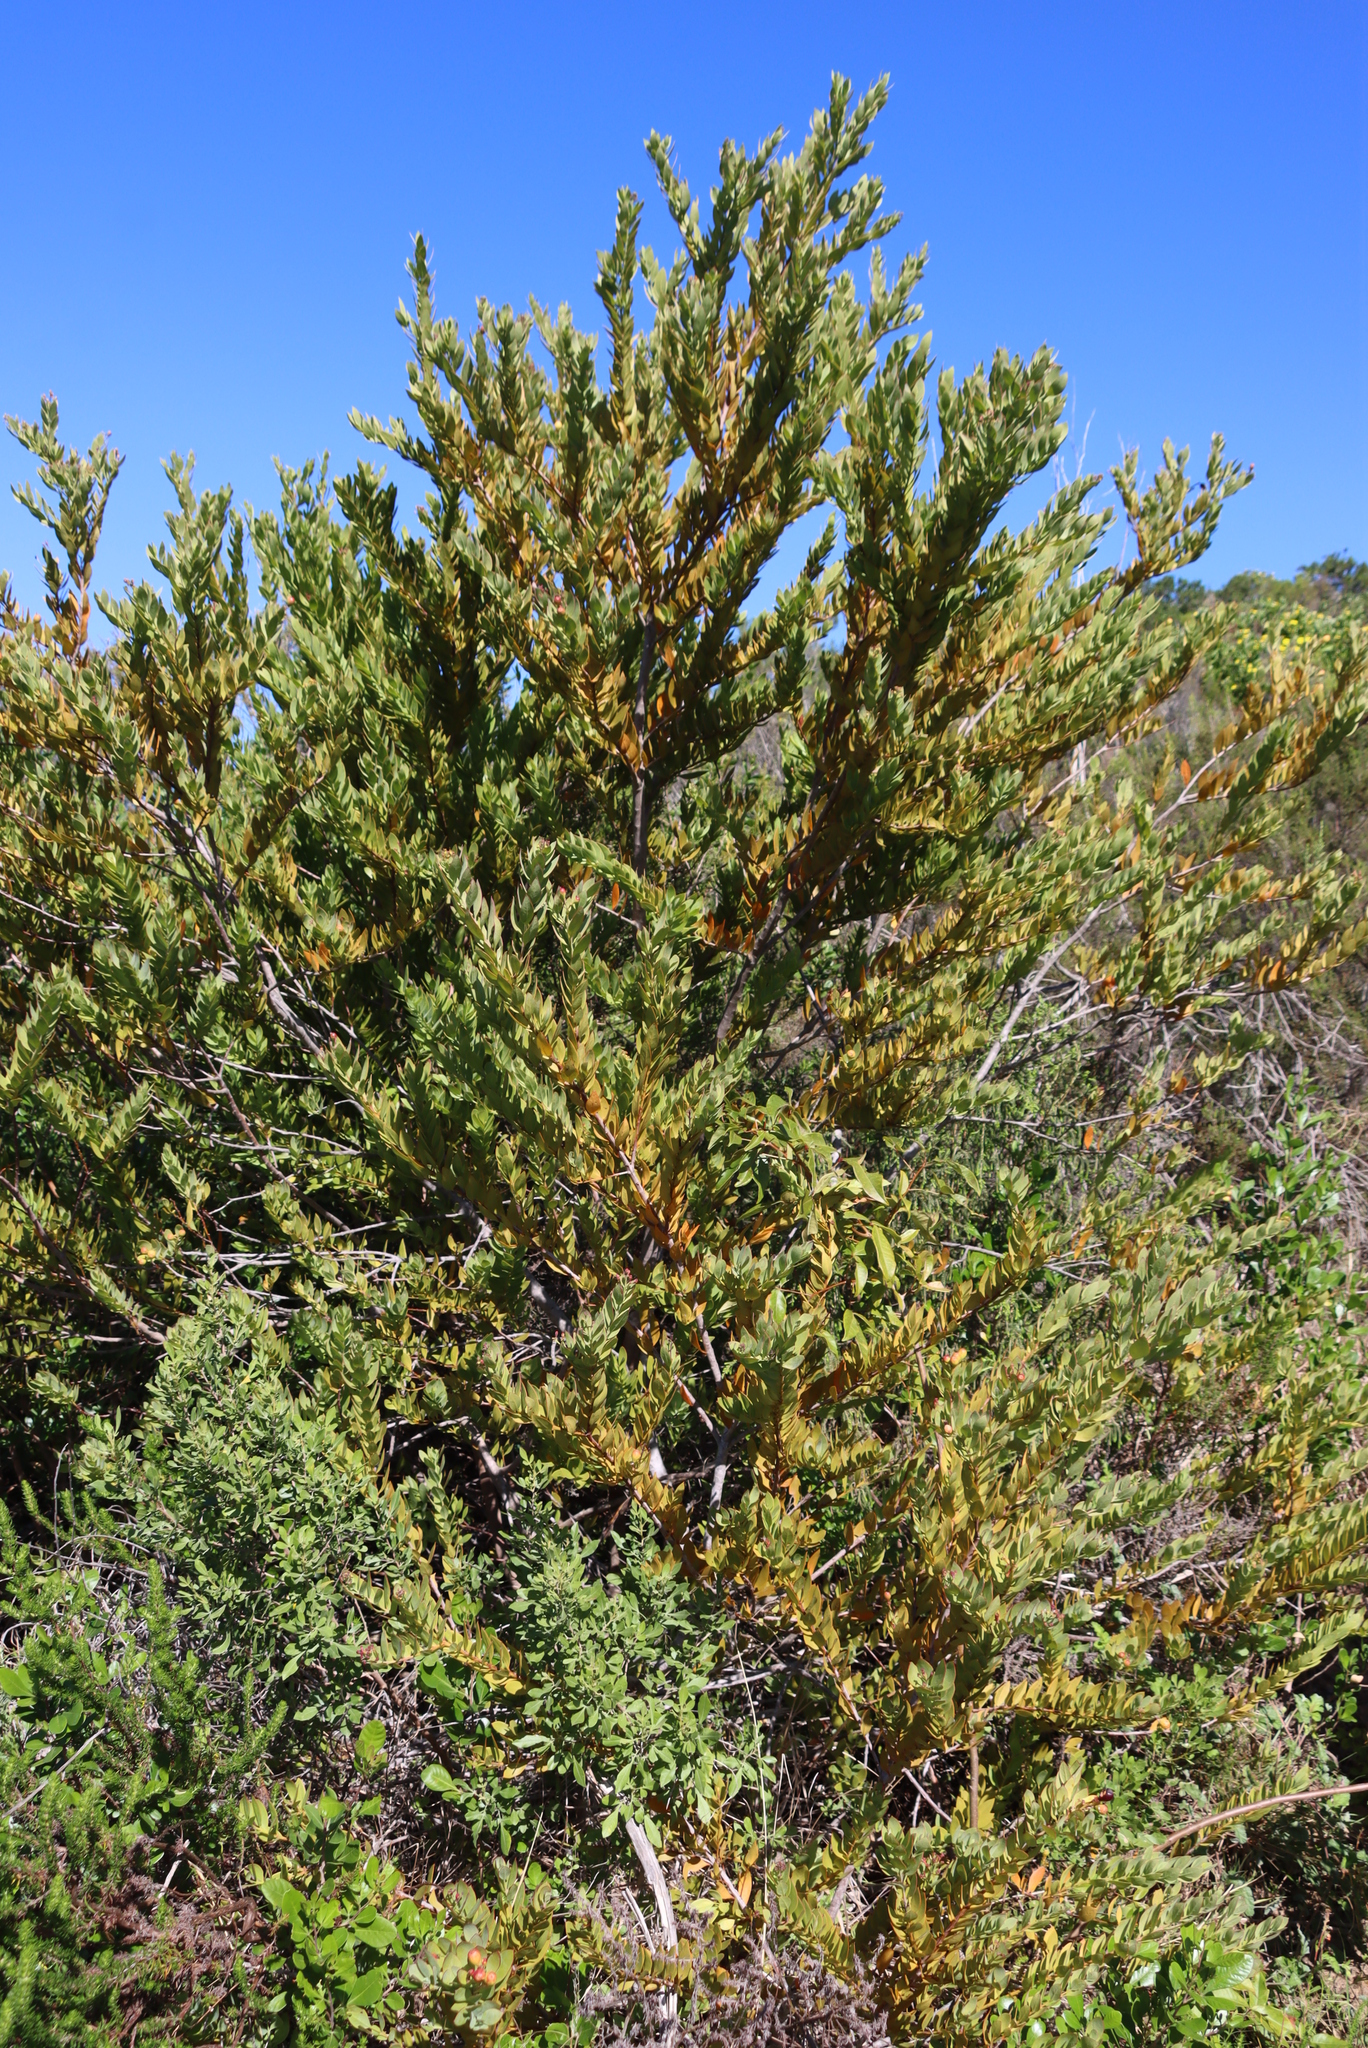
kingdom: Plantae
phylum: Tracheophyta
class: Magnoliopsida
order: Santalales
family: Santalaceae
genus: Osyris
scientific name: Osyris compressa
